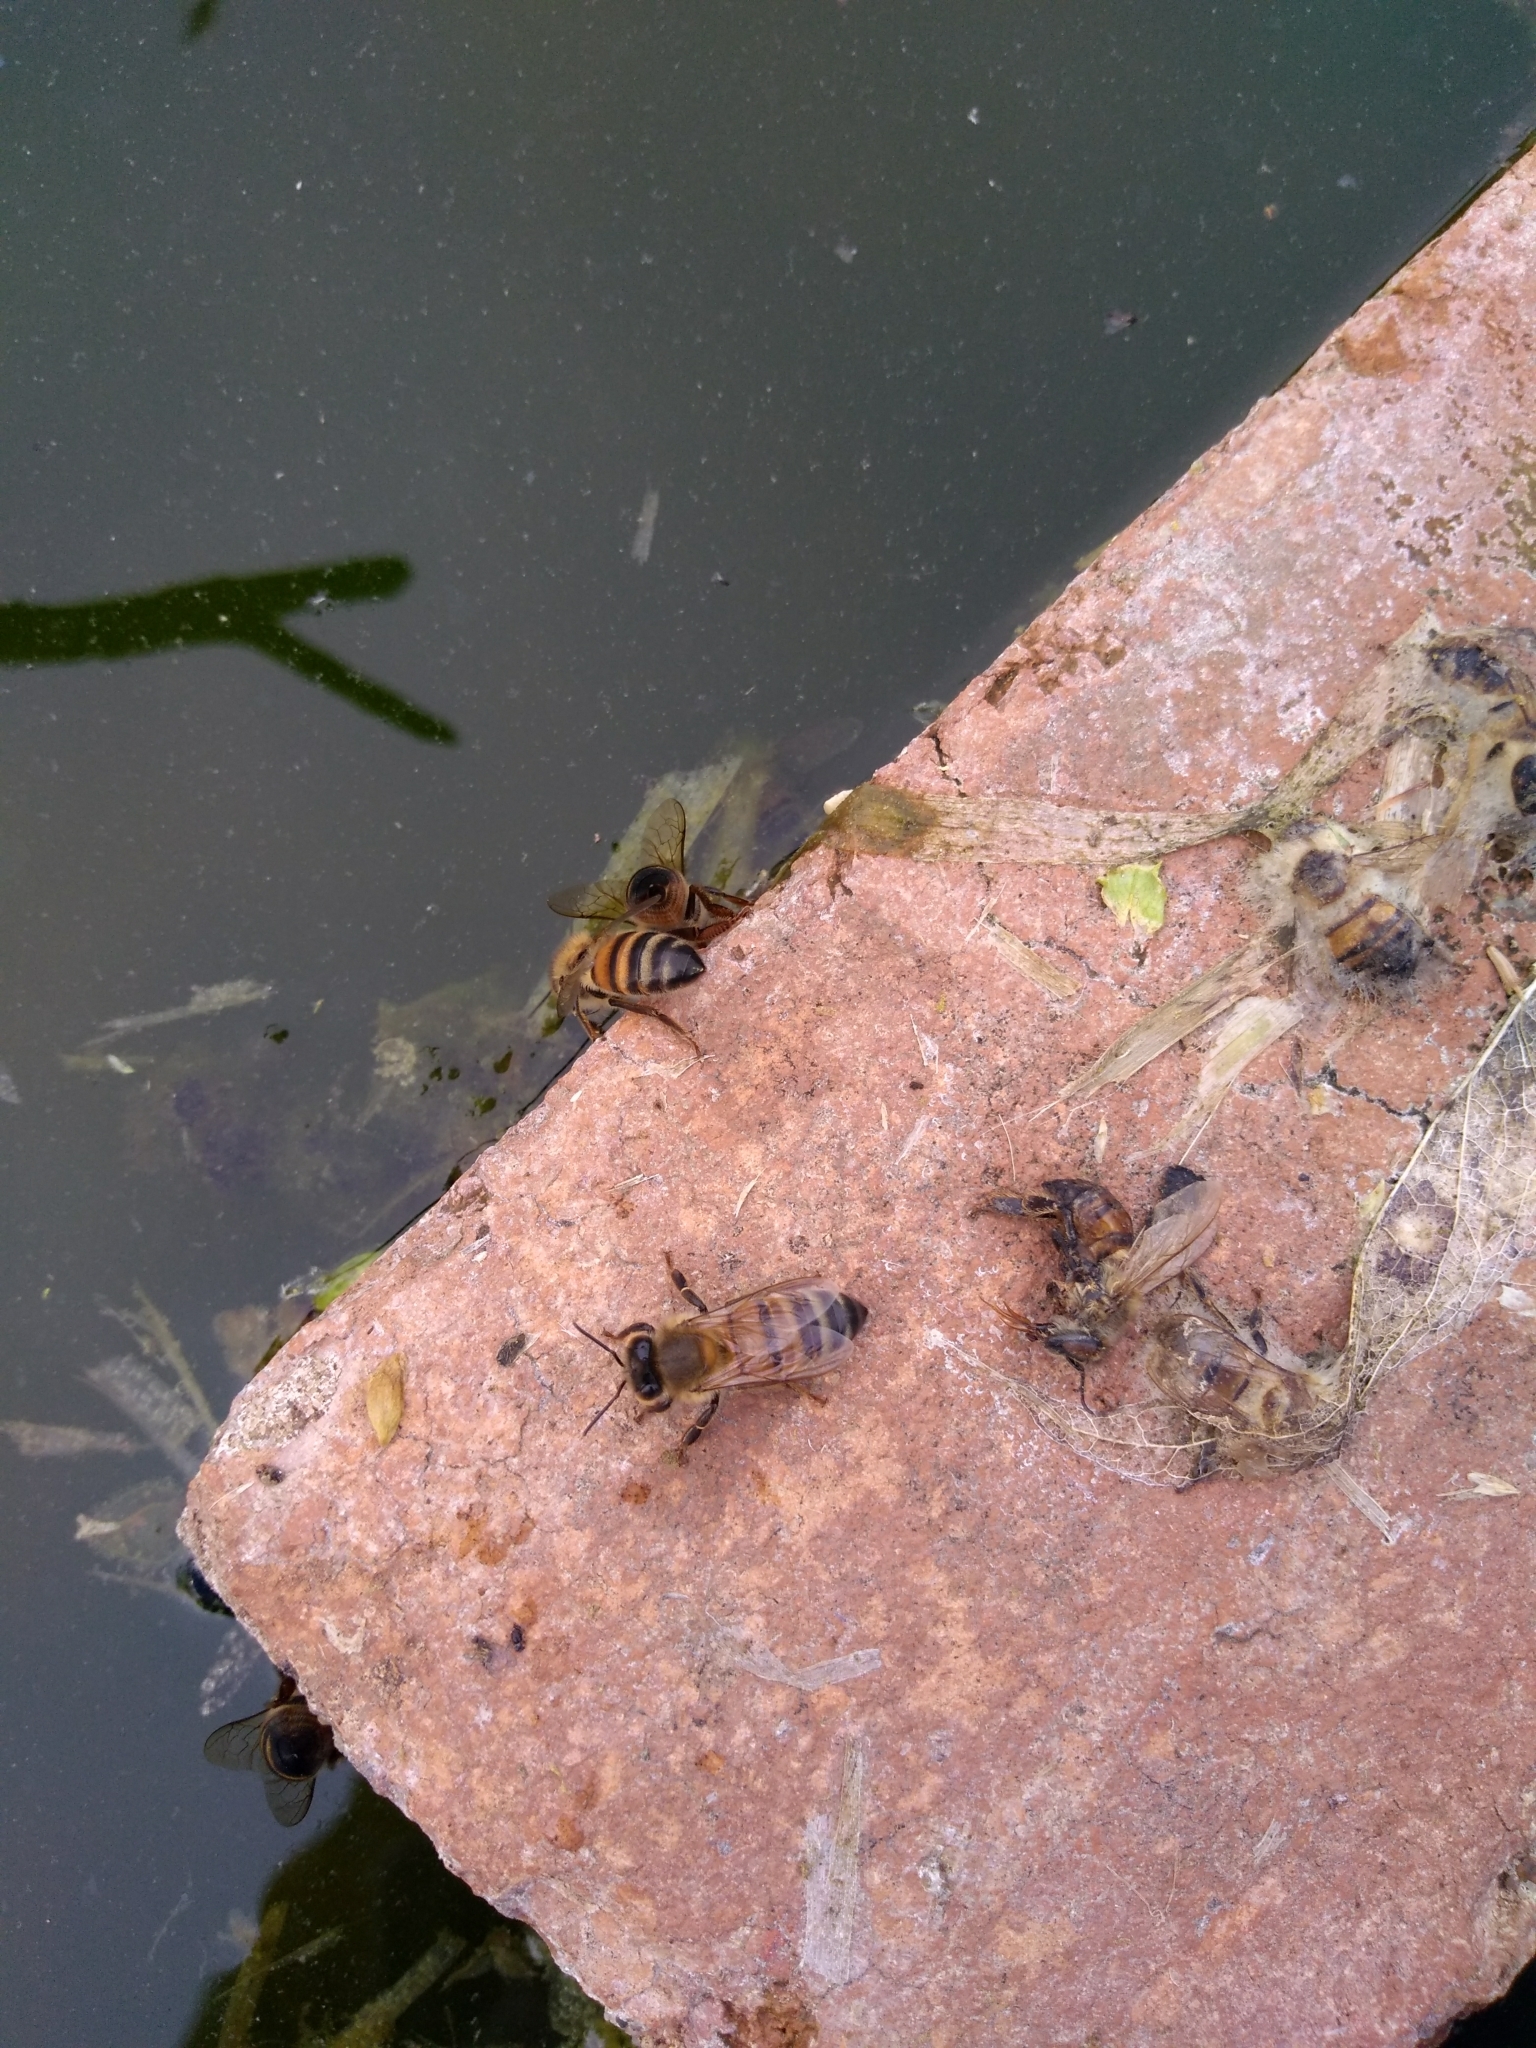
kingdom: Animalia
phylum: Arthropoda
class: Insecta
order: Hymenoptera
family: Apidae
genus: Apis
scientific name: Apis mellifera
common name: Honey bee
